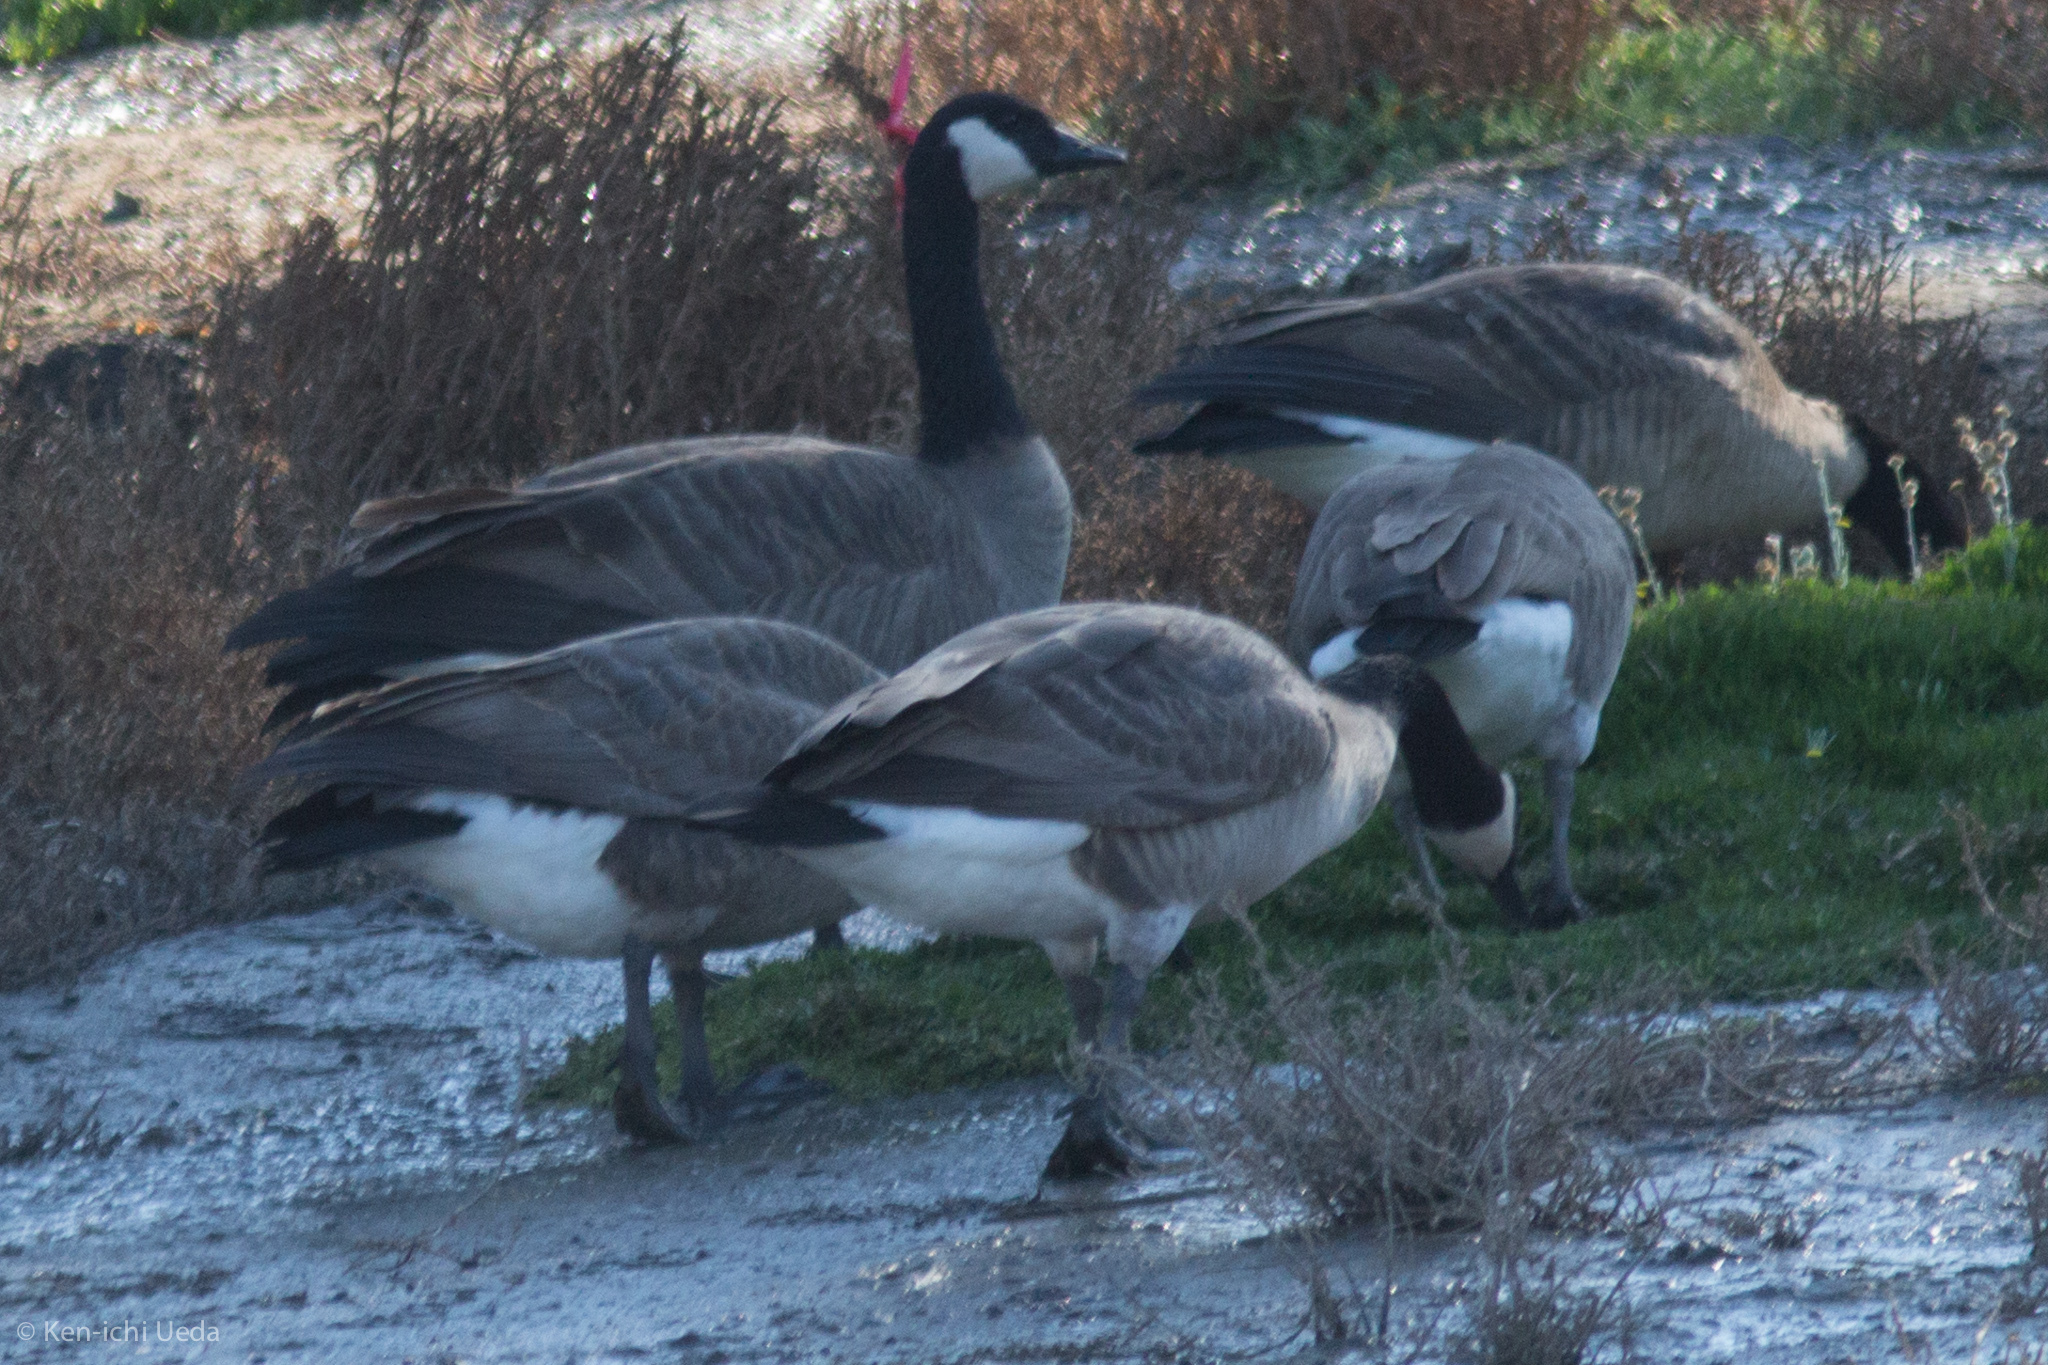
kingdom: Animalia
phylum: Chordata
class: Aves
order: Anseriformes
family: Anatidae
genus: Branta
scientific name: Branta canadensis
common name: Canada goose
